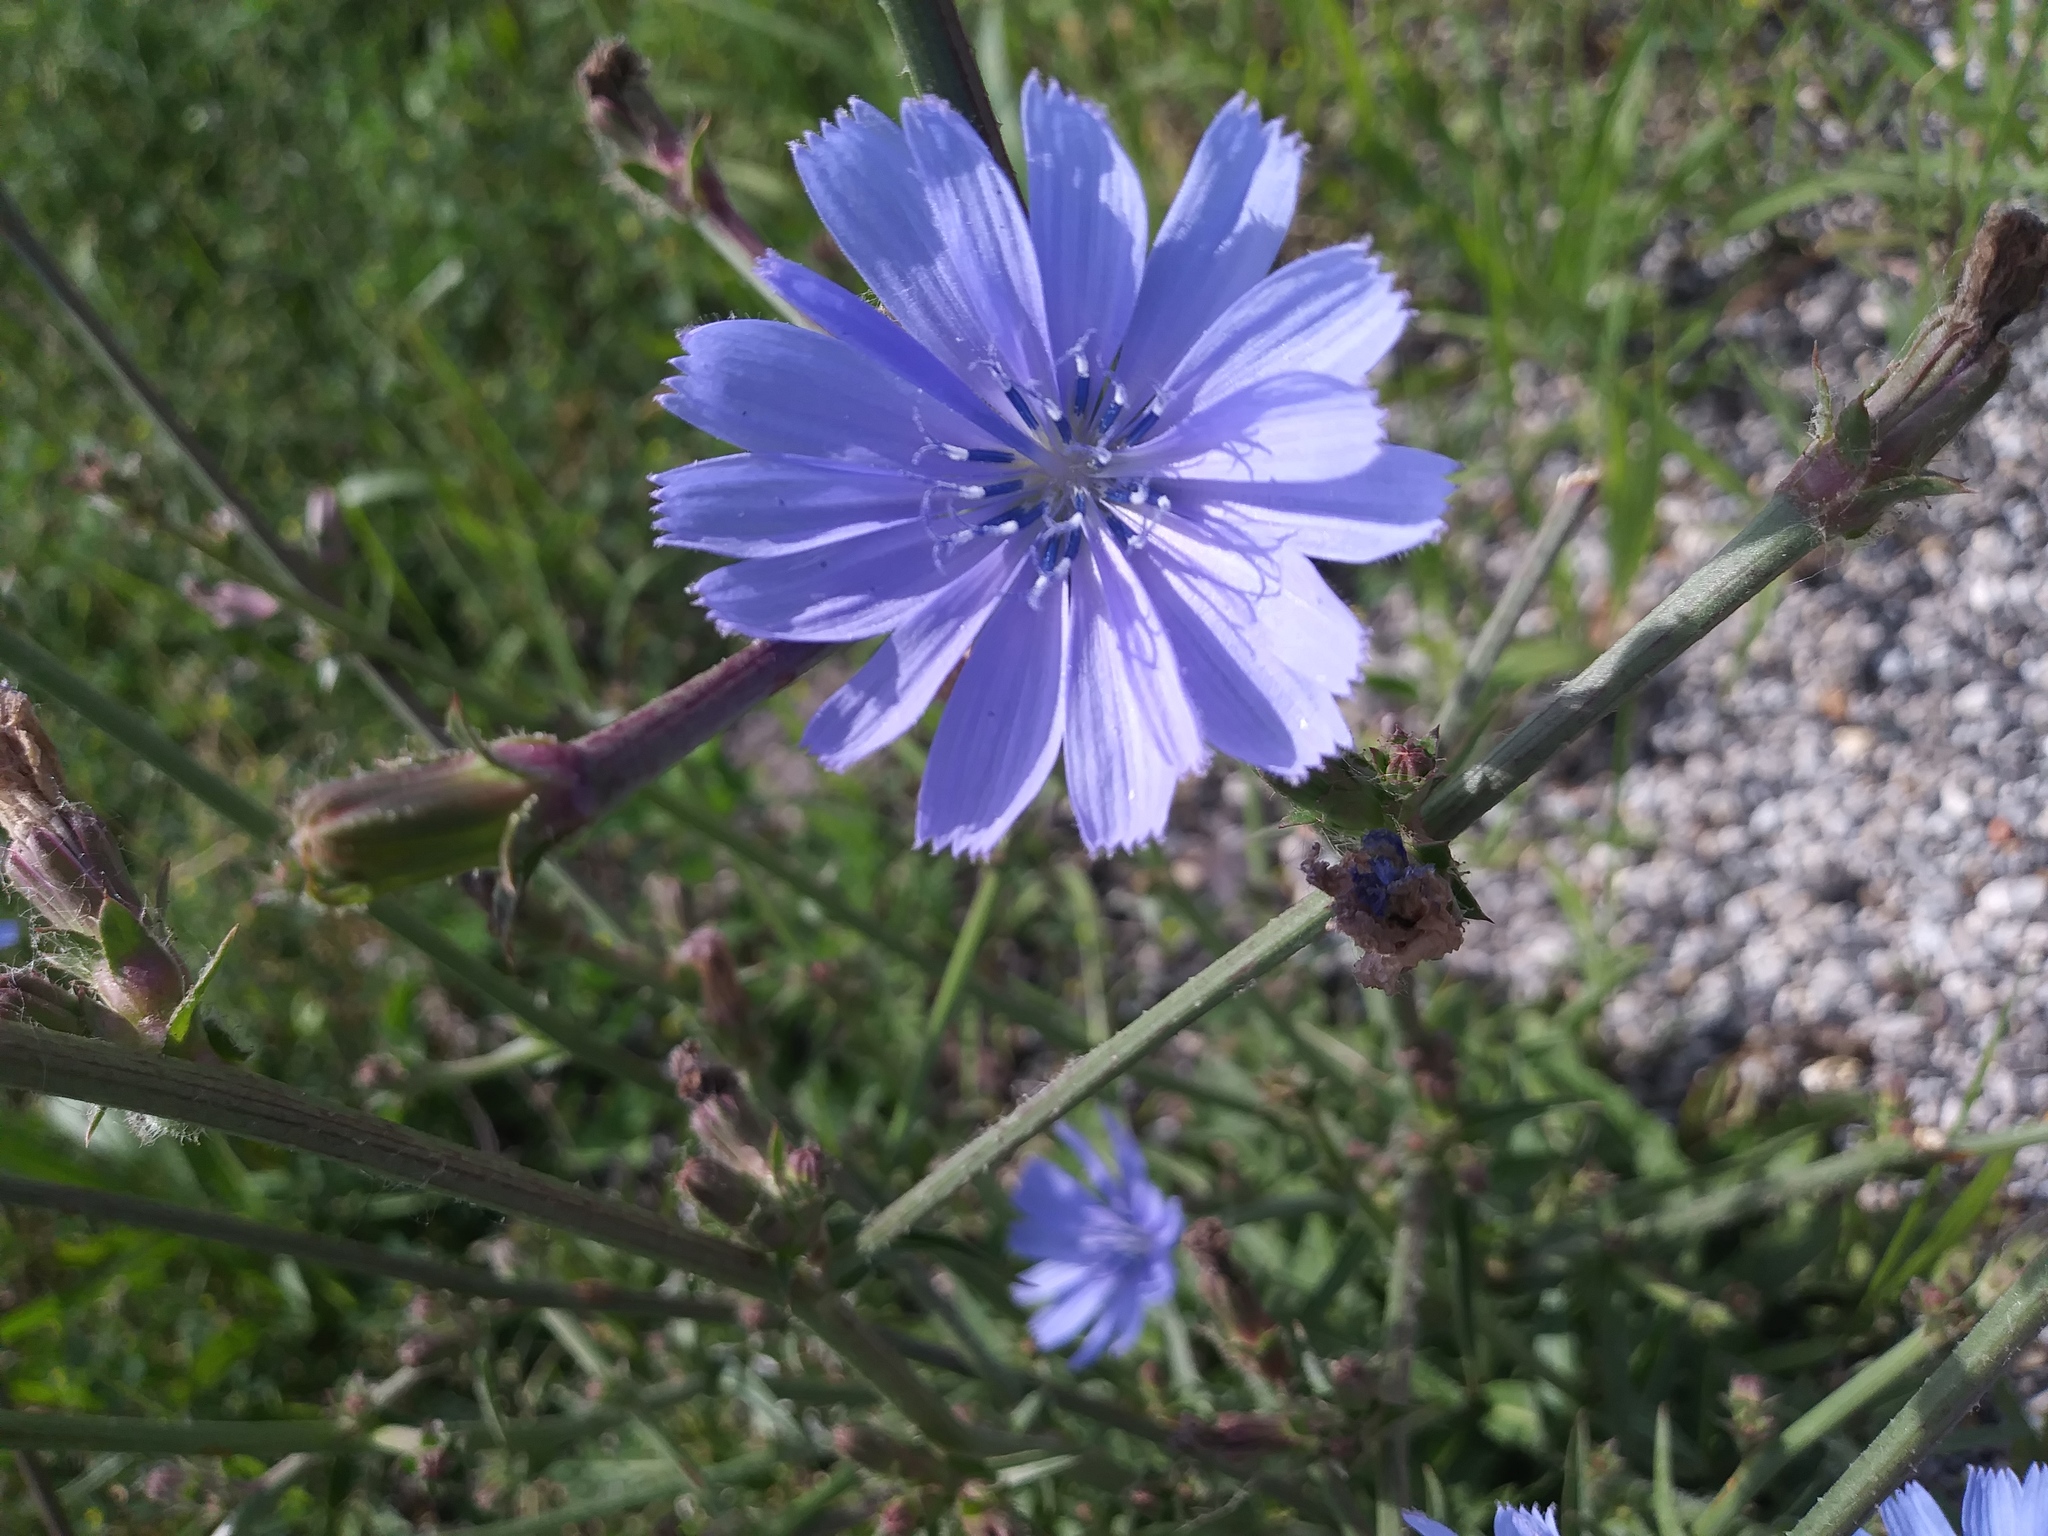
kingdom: Plantae
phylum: Tracheophyta
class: Magnoliopsida
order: Asterales
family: Asteraceae
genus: Cichorium
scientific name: Cichorium intybus
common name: Chicory
